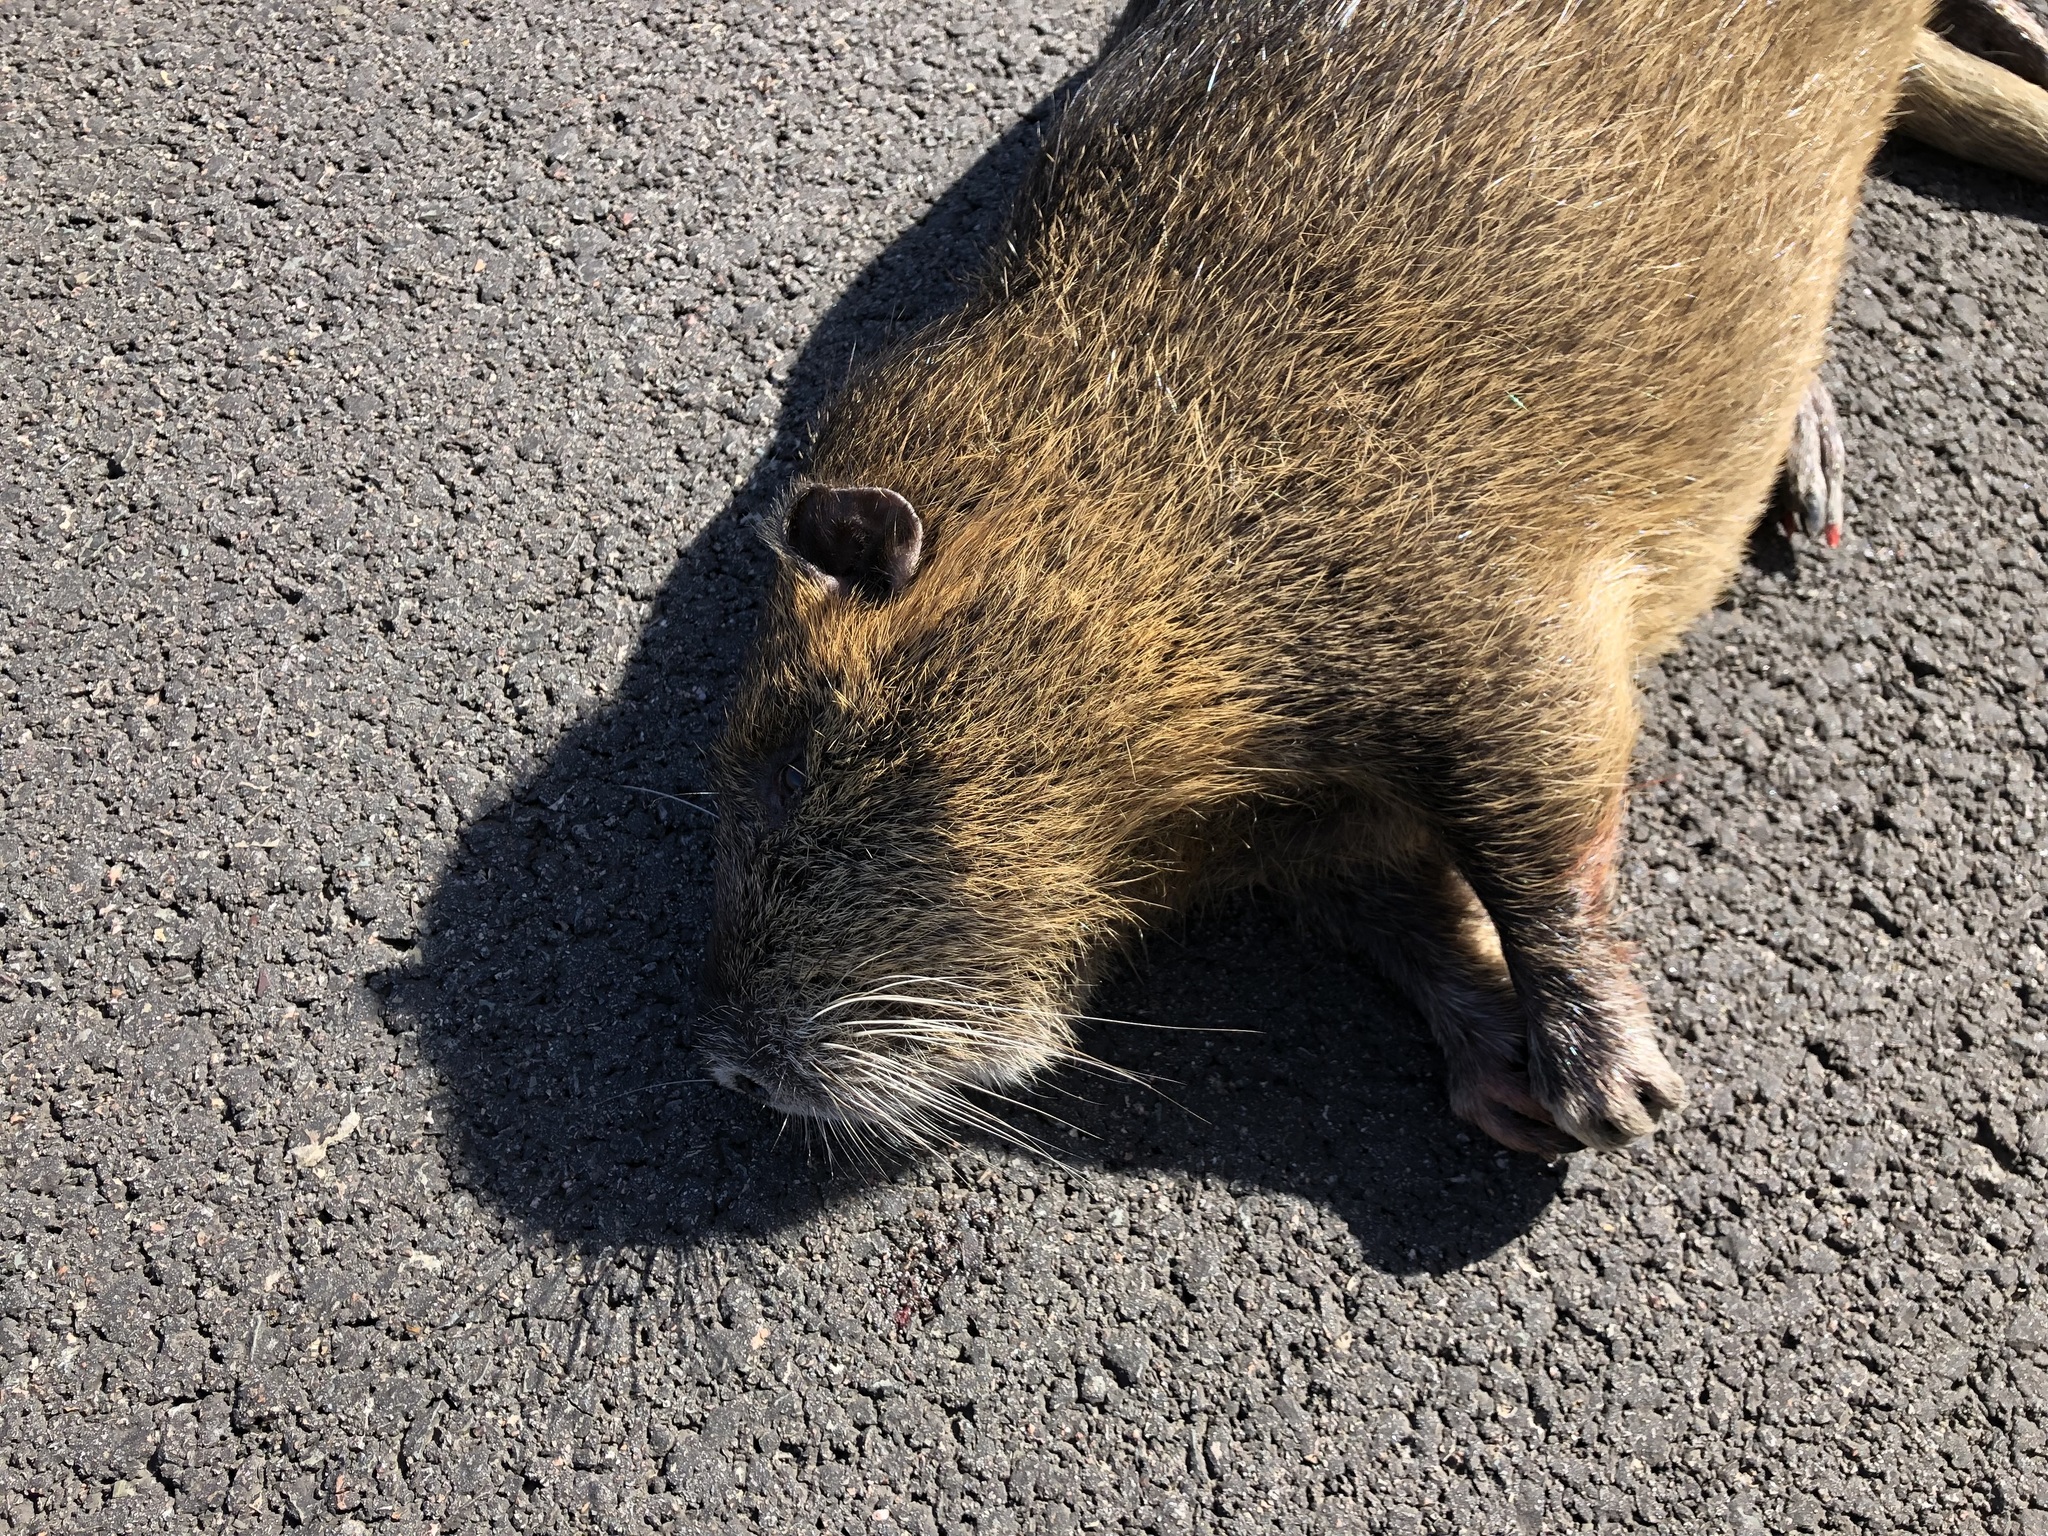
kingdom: Animalia
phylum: Chordata
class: Mammalia
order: Rodentia
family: Myocastoridae
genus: Myocastor
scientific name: Myocastor coypus
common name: Coypu
